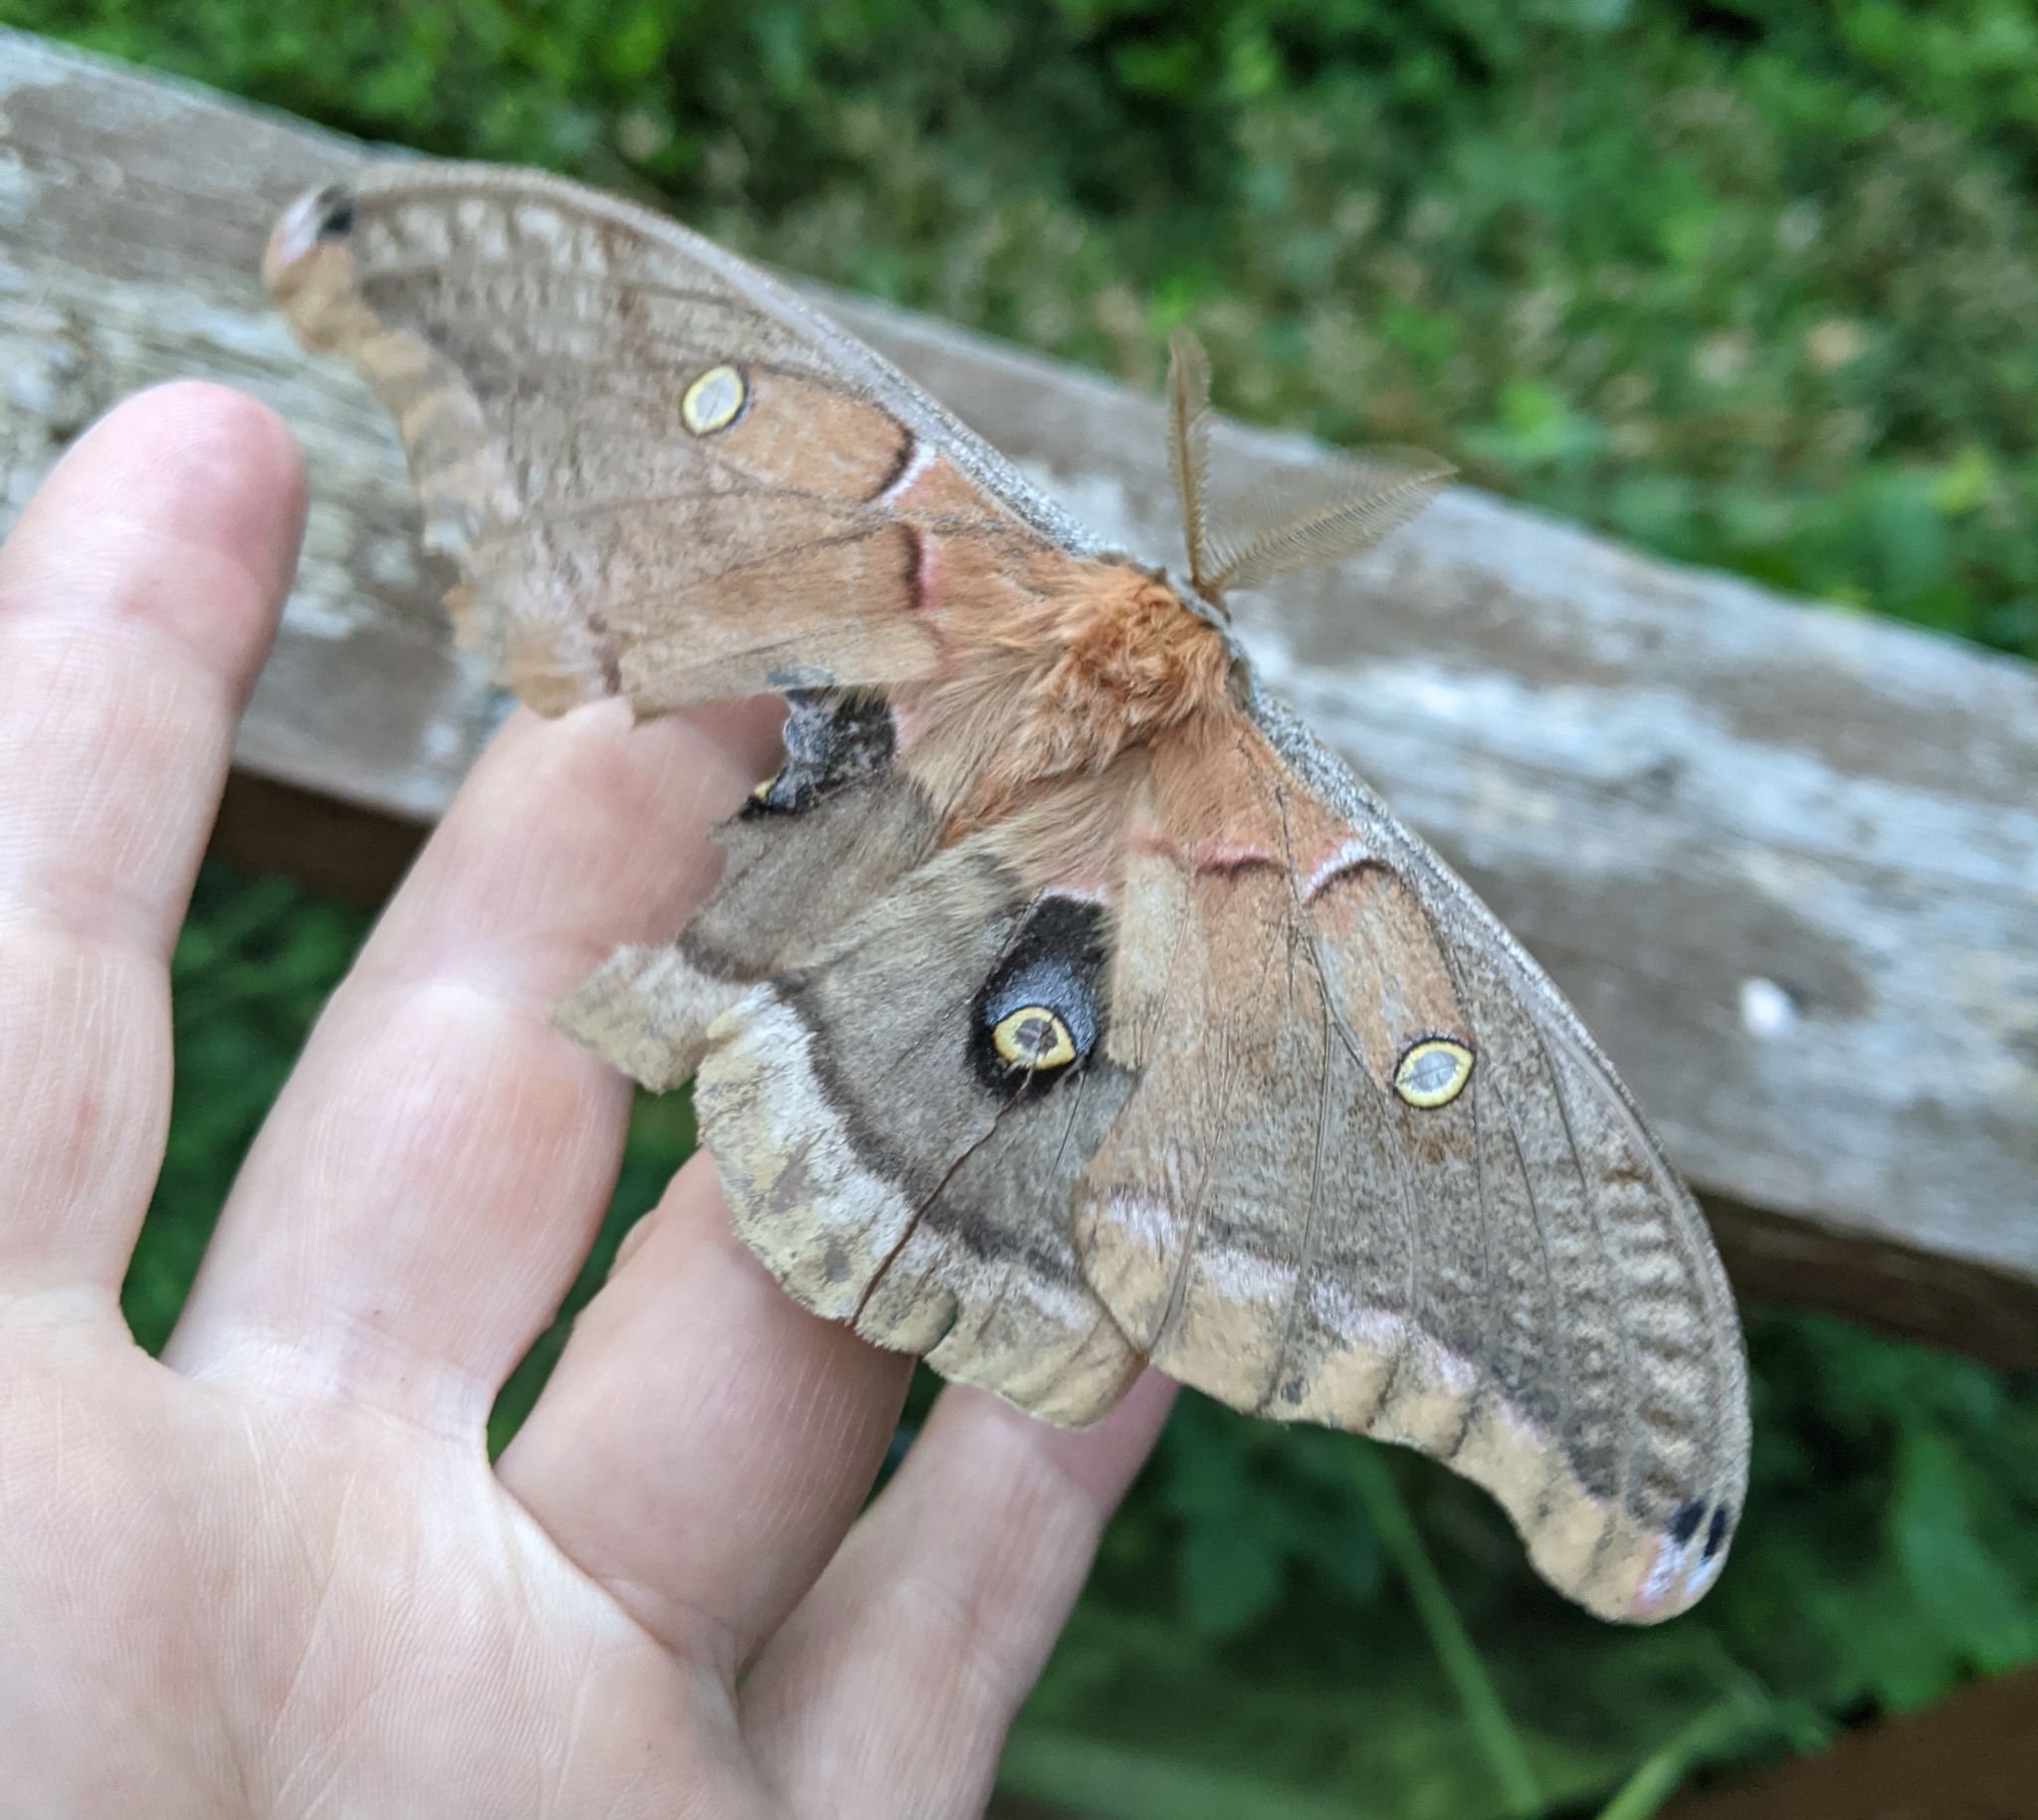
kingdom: Animalia
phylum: Arthropoda
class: Insecta
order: Lepidoptera
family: Saturniidae
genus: Antheraea
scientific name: Antheraea polyphemus
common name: Polyphemus moth
